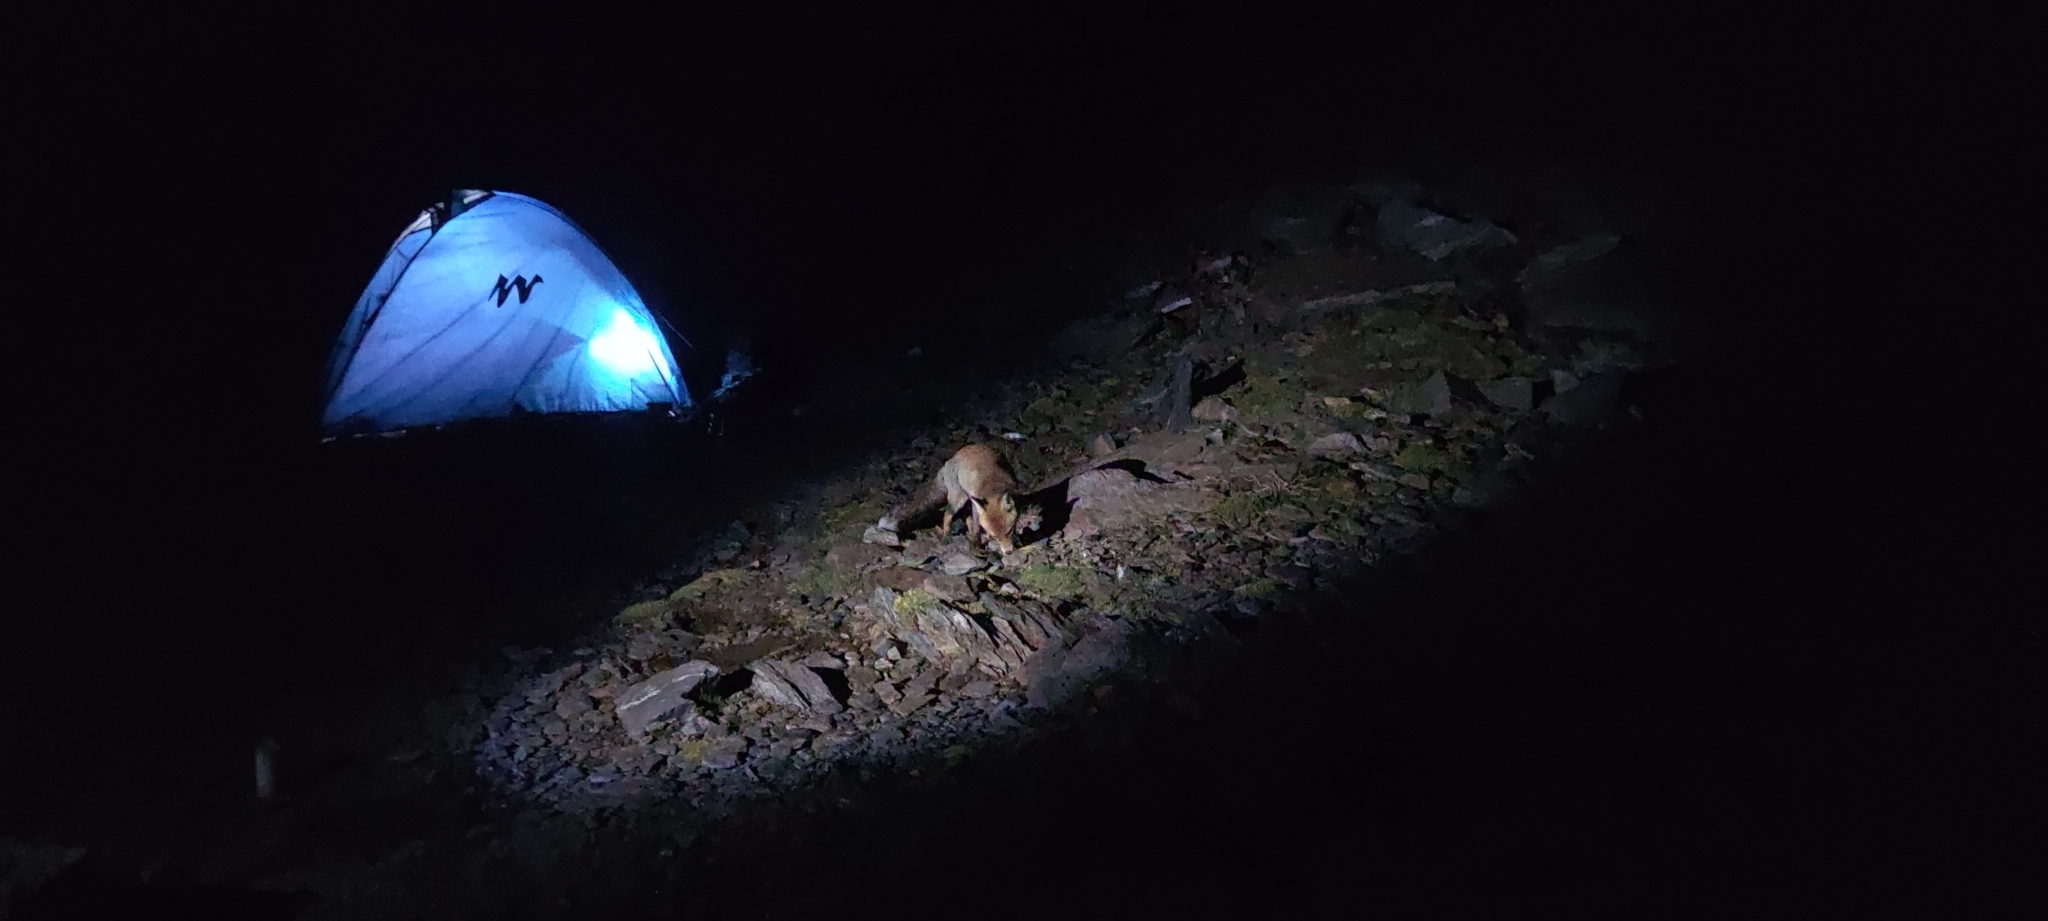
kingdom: Animalia
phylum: Chordata
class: Mammalia
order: Carnivora
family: Canidae
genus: Vulpes
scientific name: Vulpes vulpes
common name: Red fox
